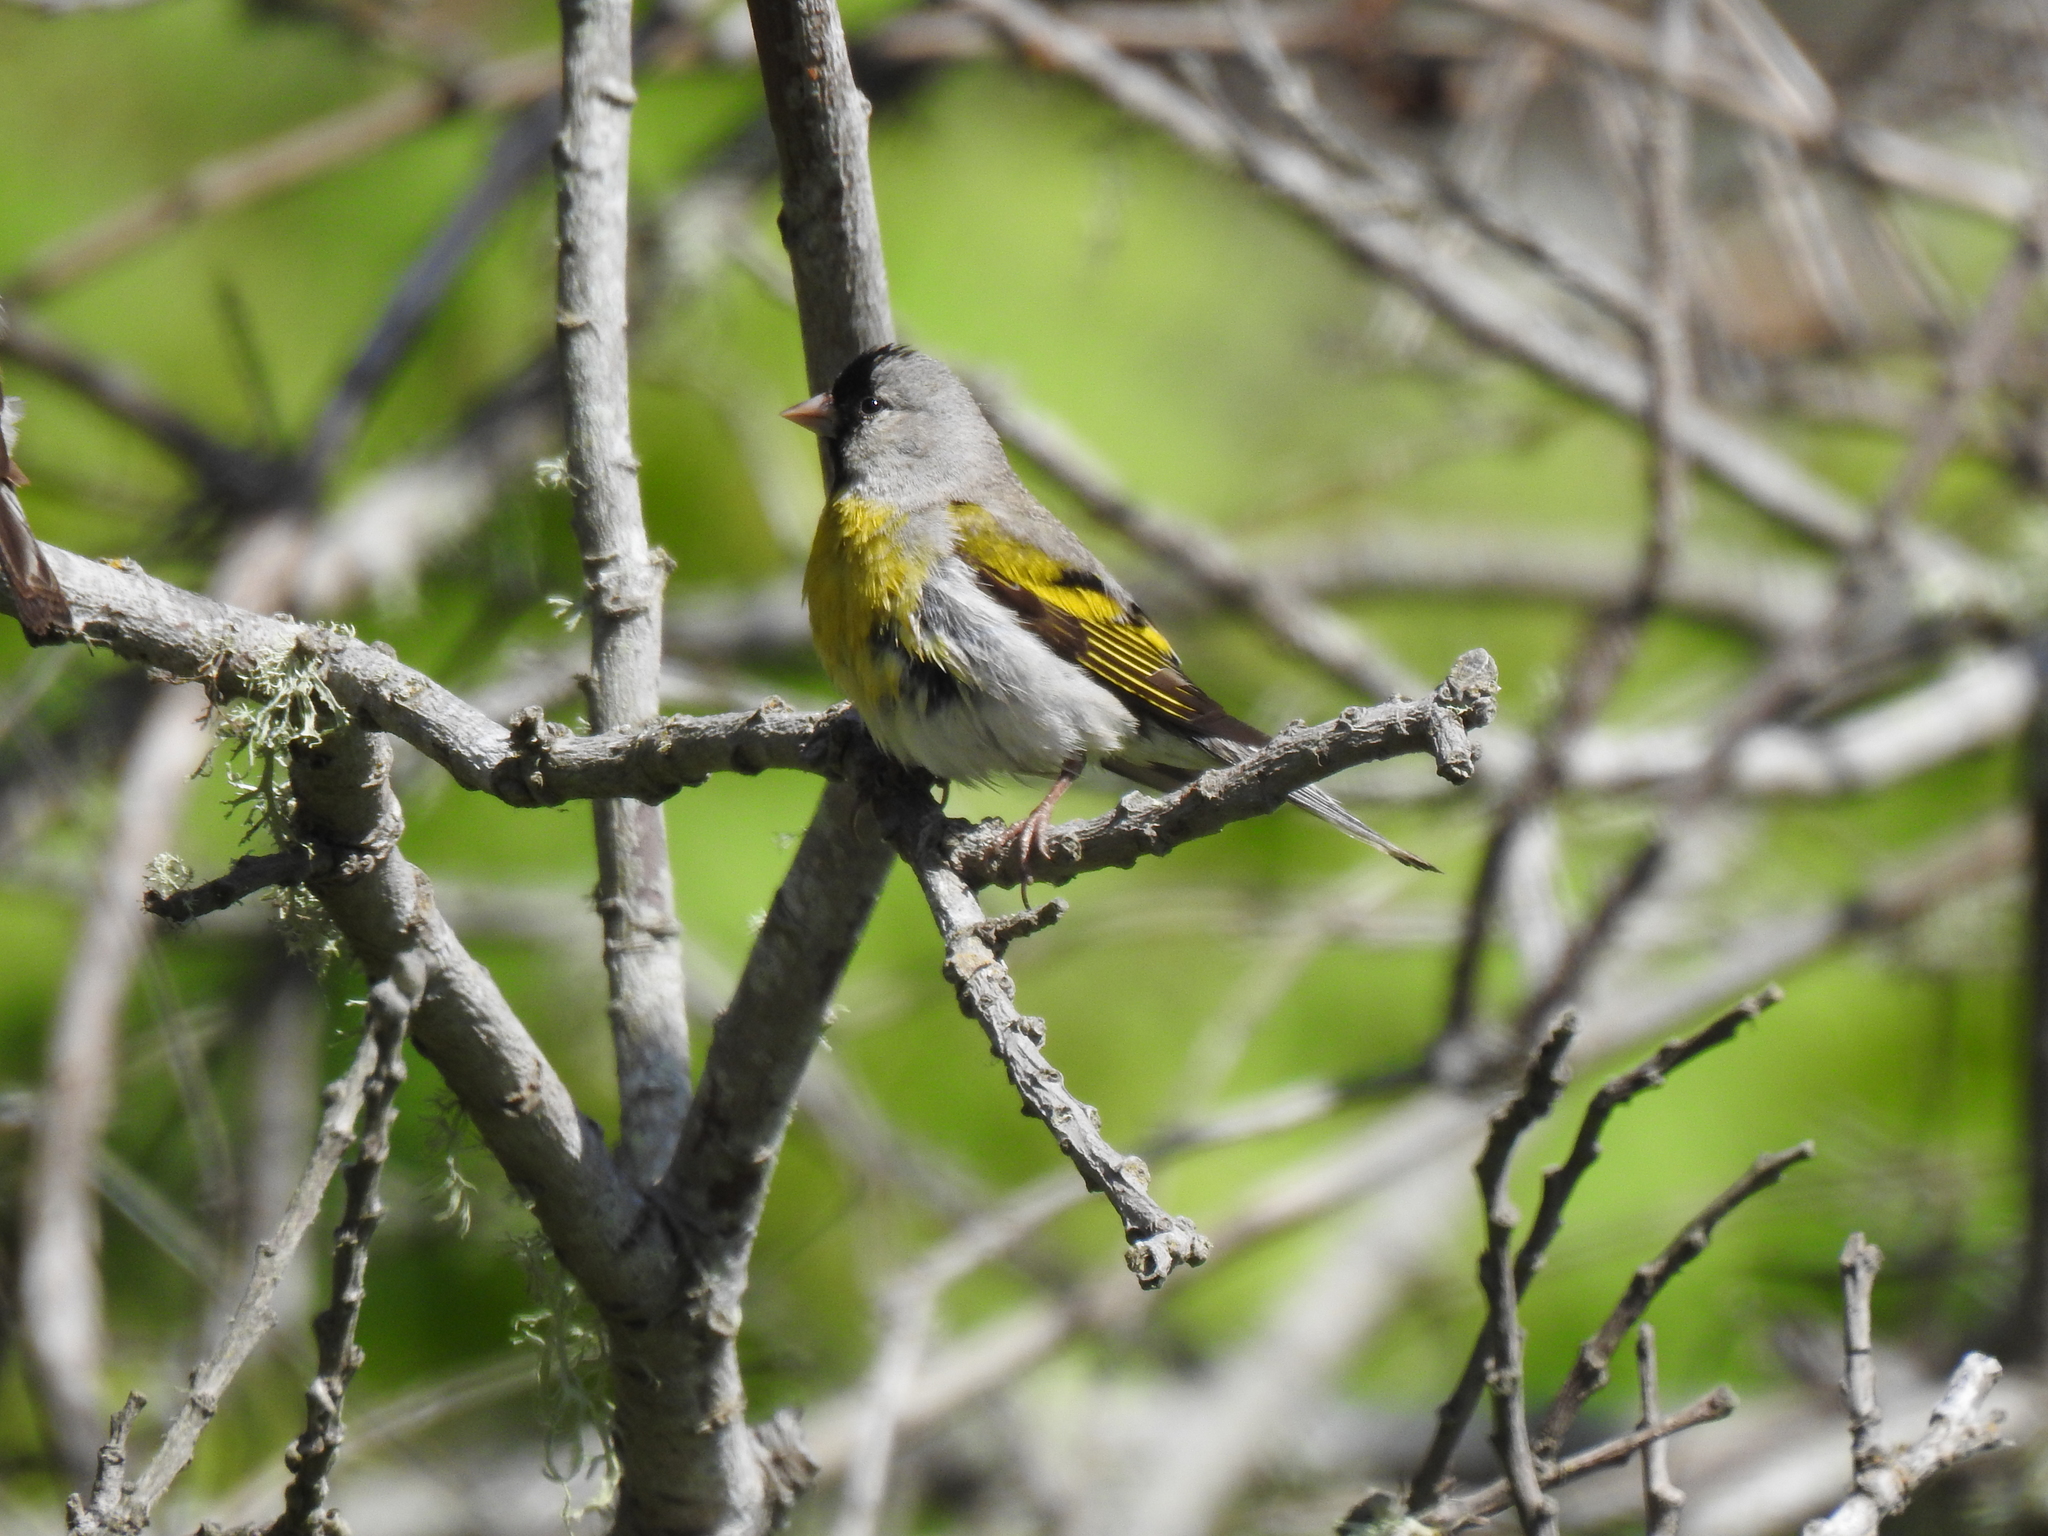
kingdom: Animalia
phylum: Chordata
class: Aves
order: Passeriformes
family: Fringillidae
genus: Spinus
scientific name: Spinus lawrencei
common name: Lawrence's goldfinch
